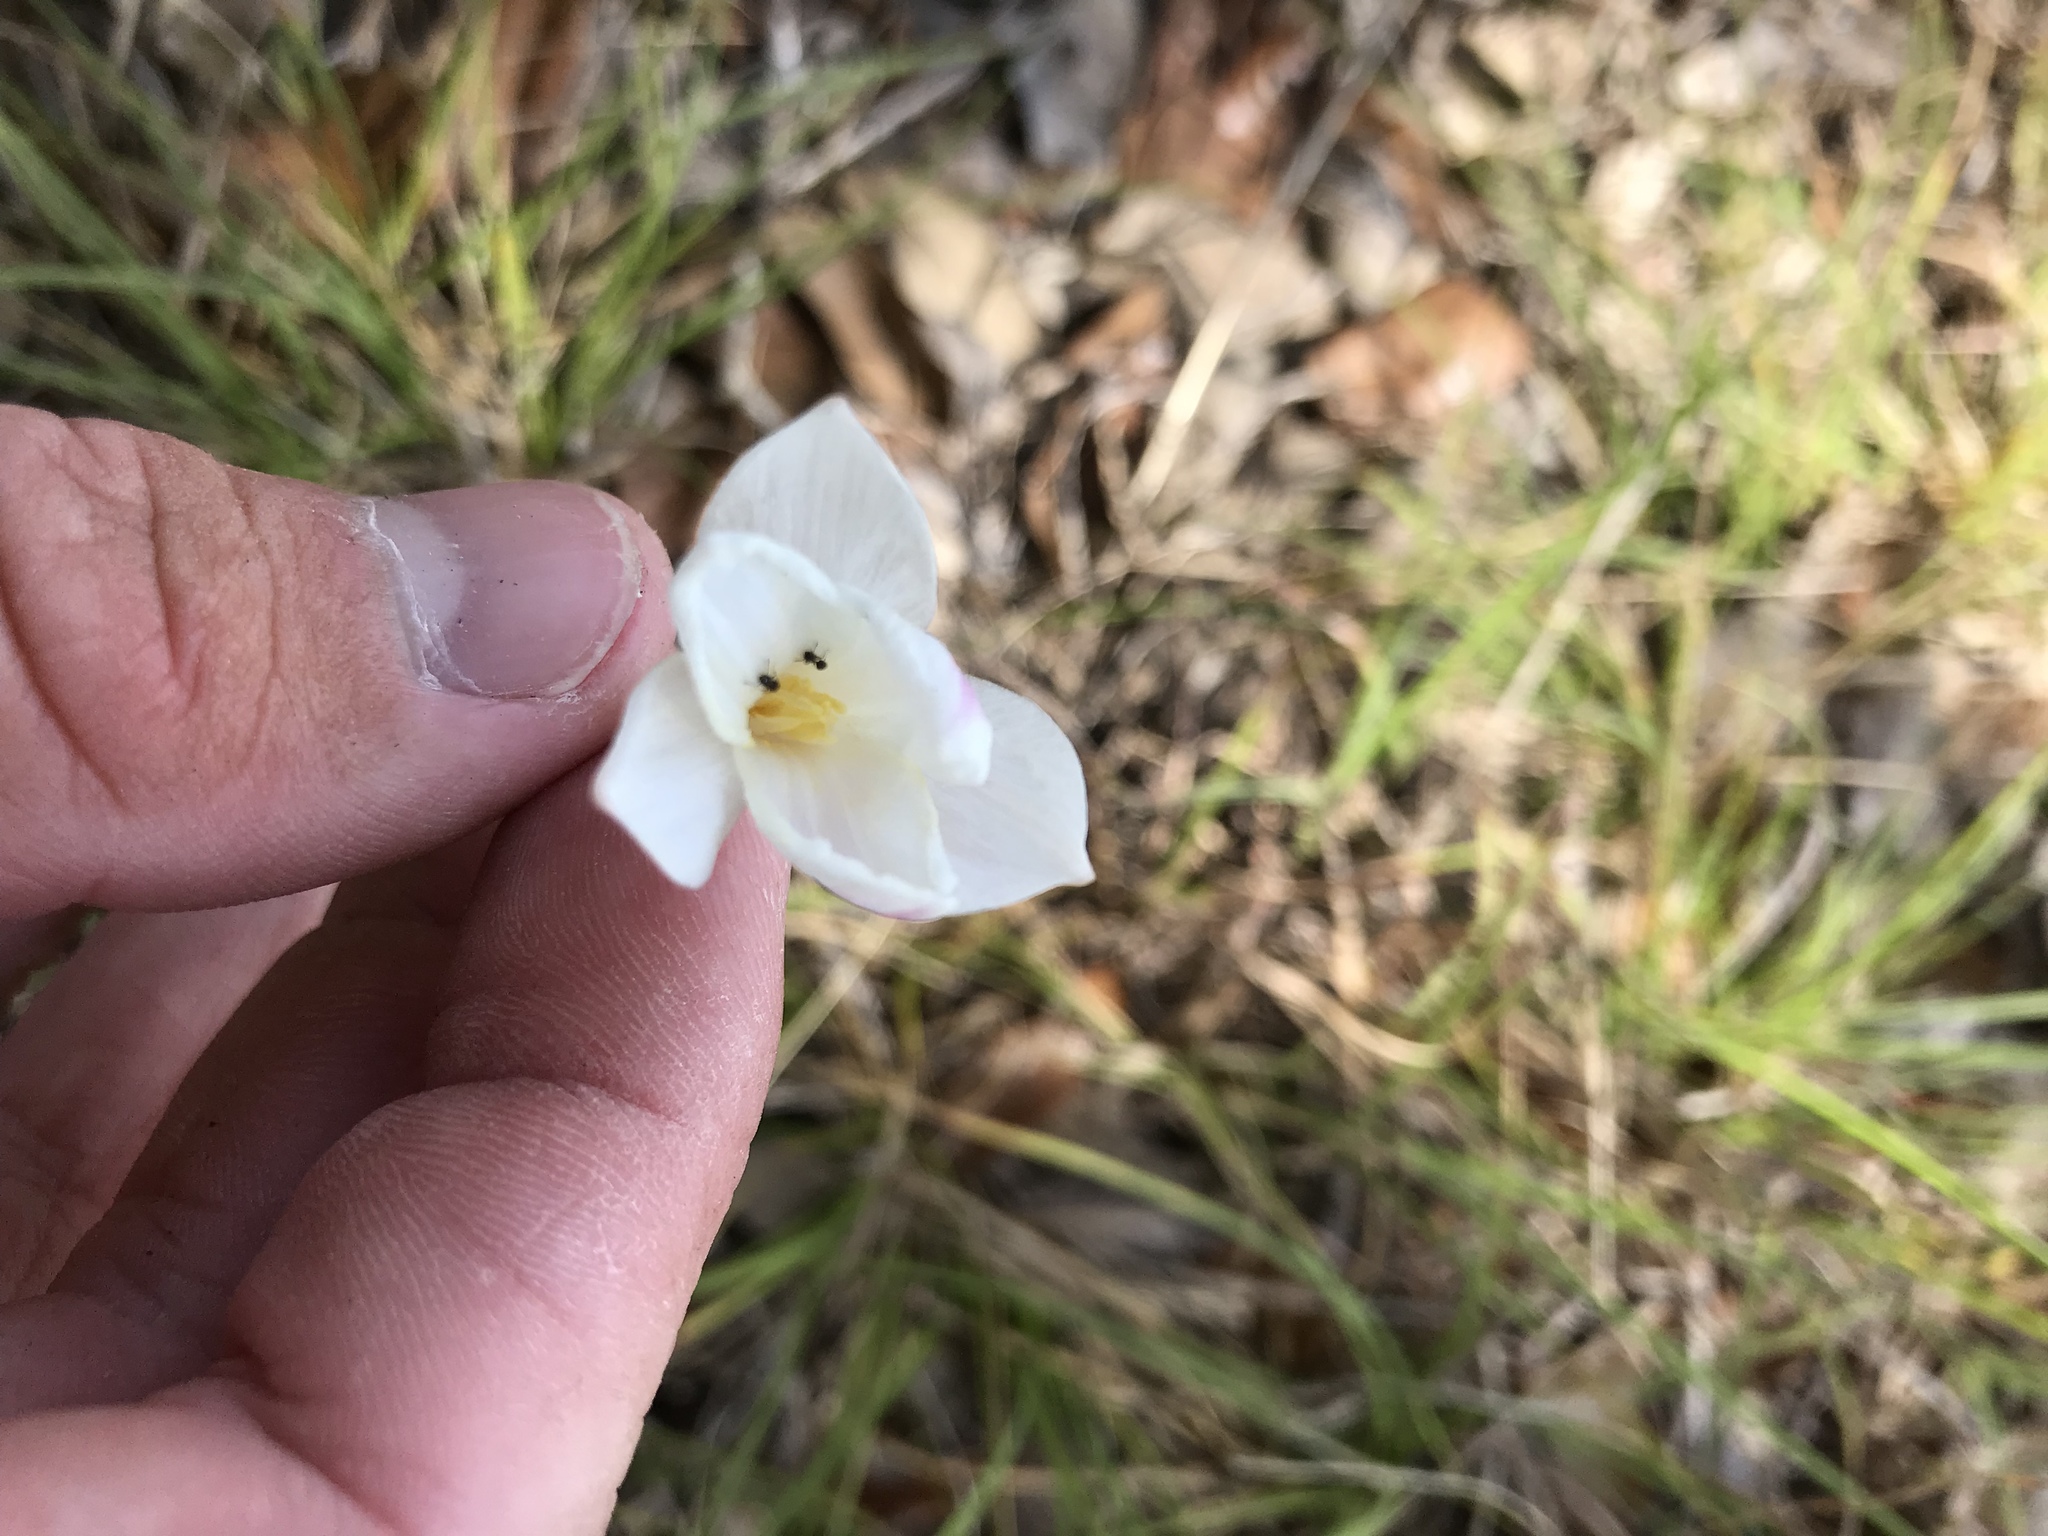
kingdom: Plantae
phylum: Tracheophyta
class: Liliopsida
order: Asparagales
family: Amaryllidaceae
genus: Zephyranthes
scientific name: Zephyranthes chlorosolen
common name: Evening rain-lily
